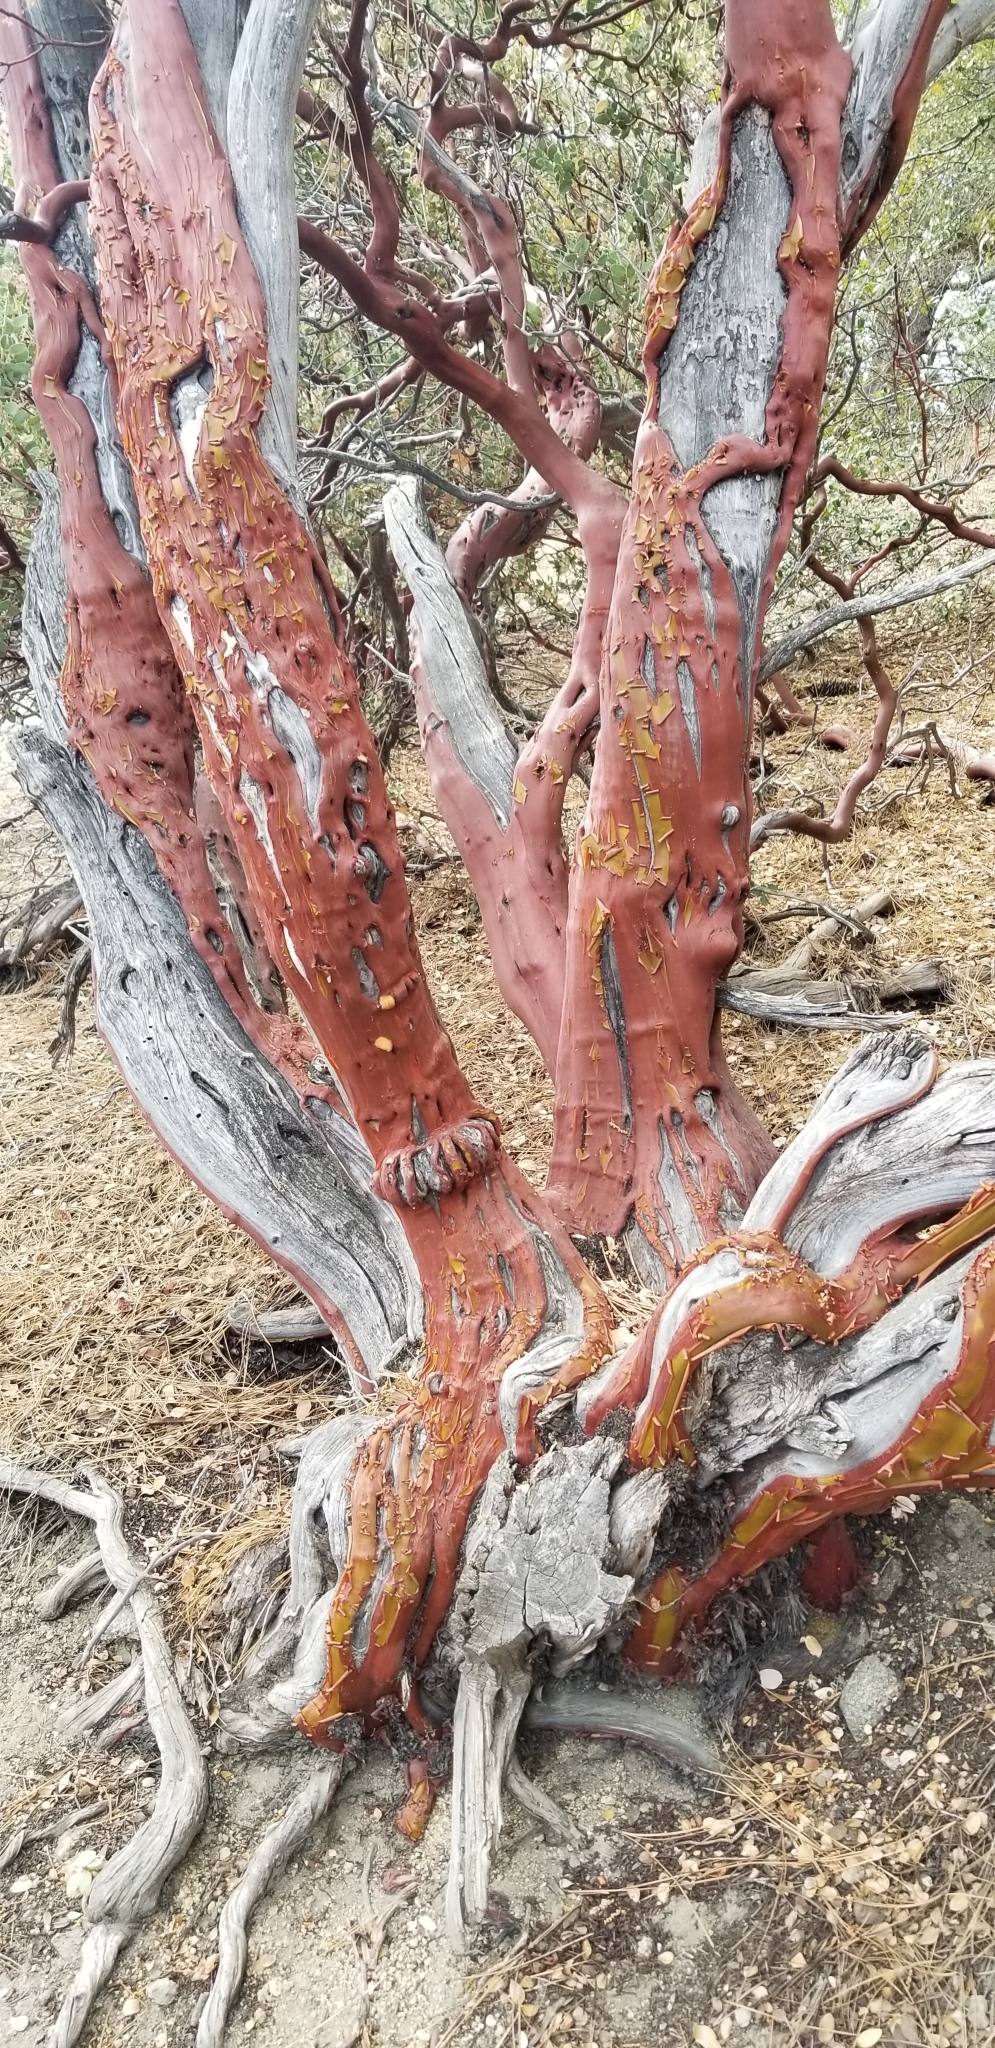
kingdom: Plantae
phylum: Tracheophyta
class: Magnoliopsida
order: Ericales
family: Ericaceae
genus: Arctostaphylos
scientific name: Arctostaphylos pringlei
